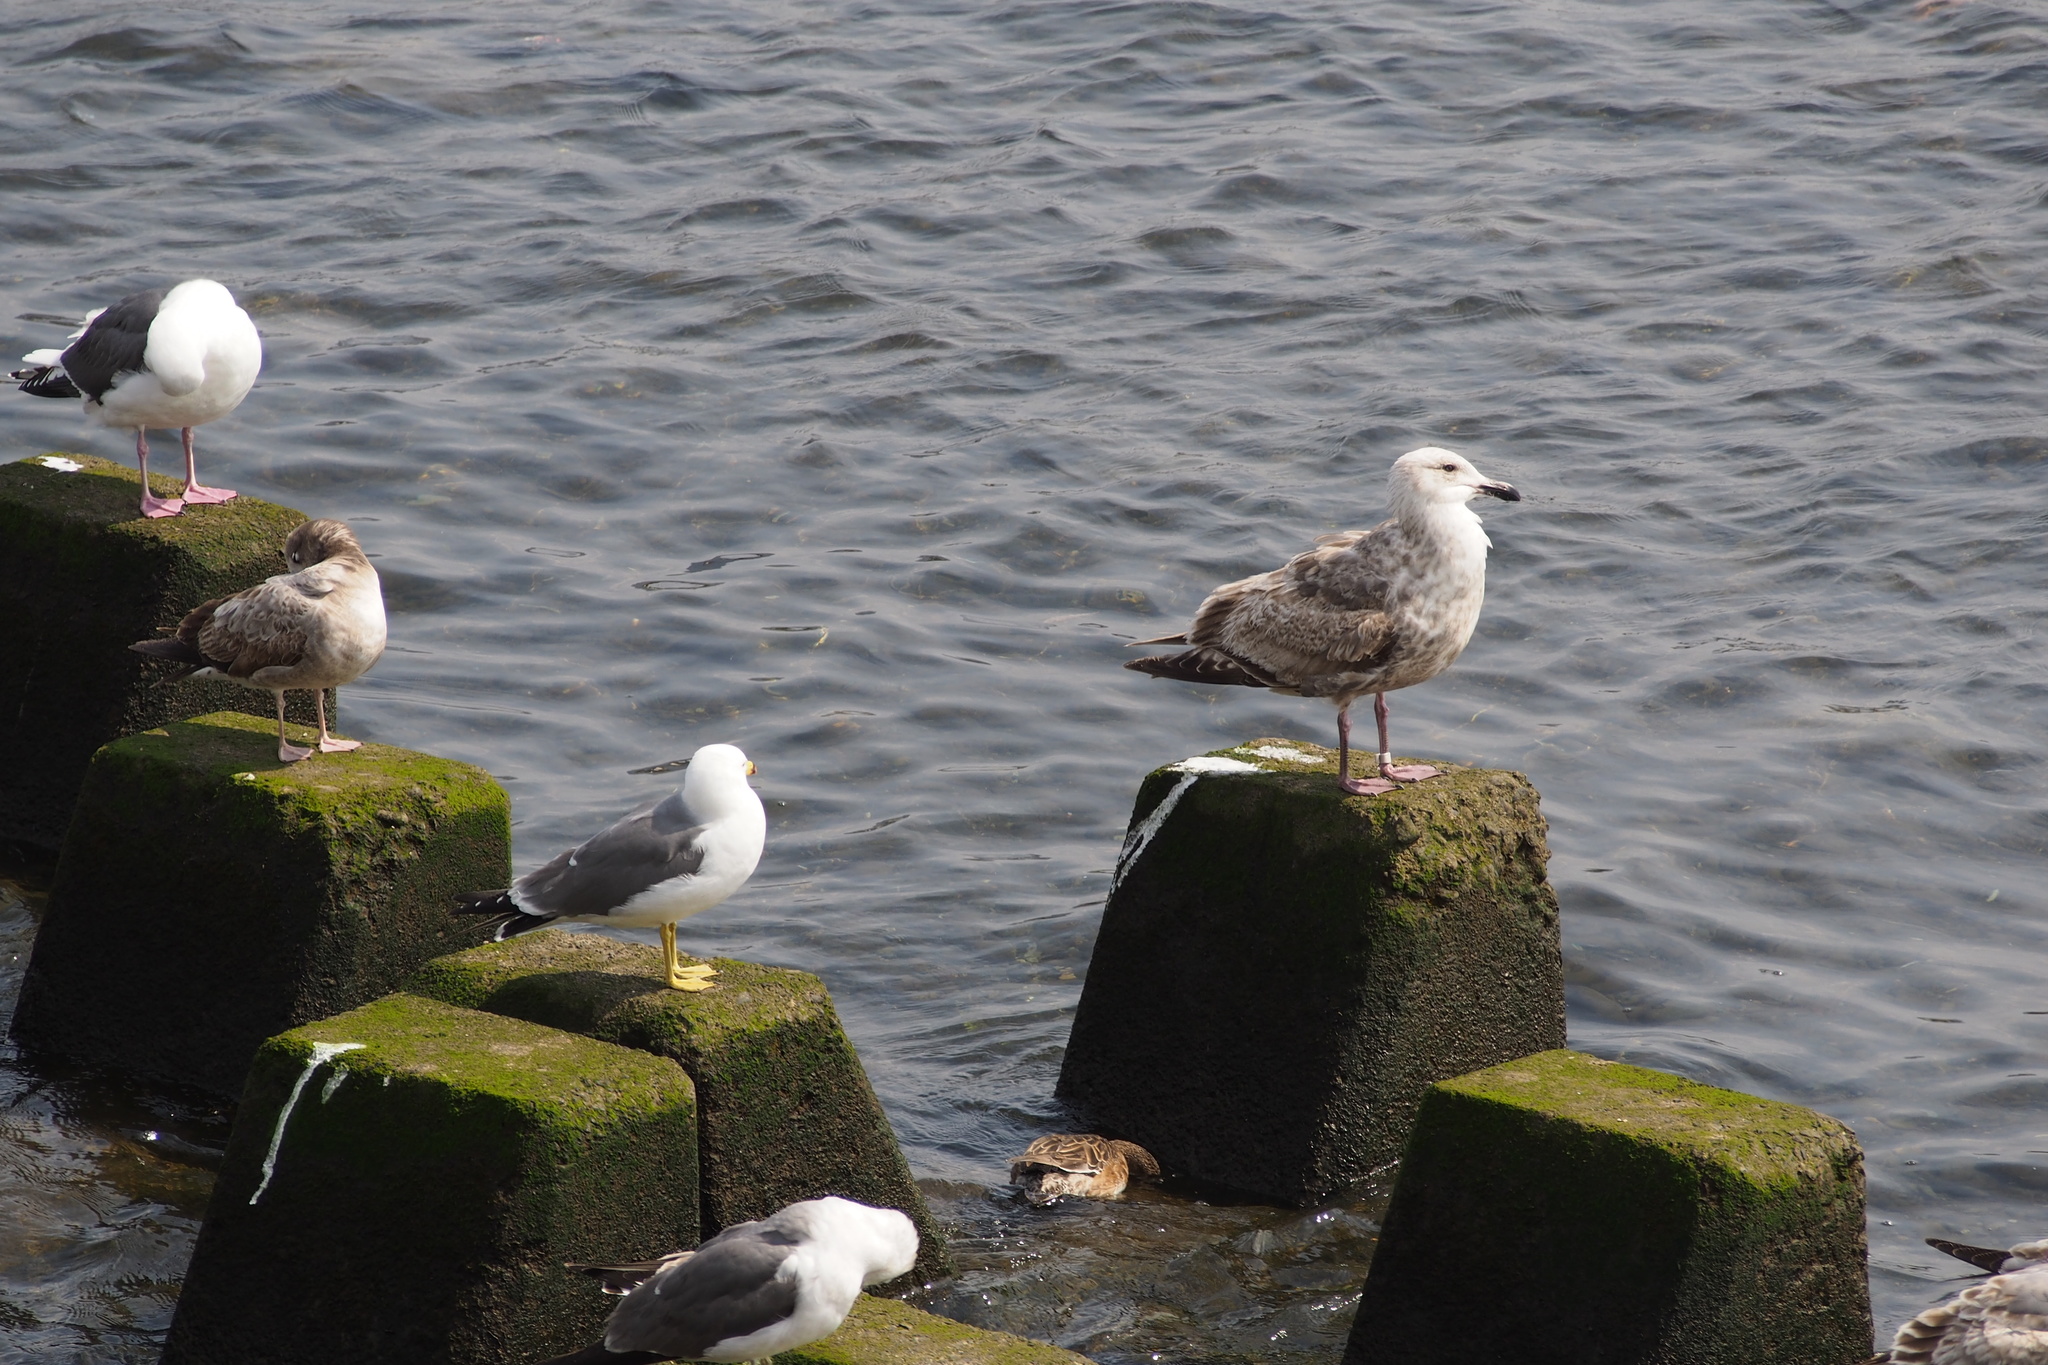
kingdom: Animalia
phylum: Chordata
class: Aves
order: Charadriiformes
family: Laridae
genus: Larus
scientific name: Larus schistisagus
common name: Slaty-backed gull
